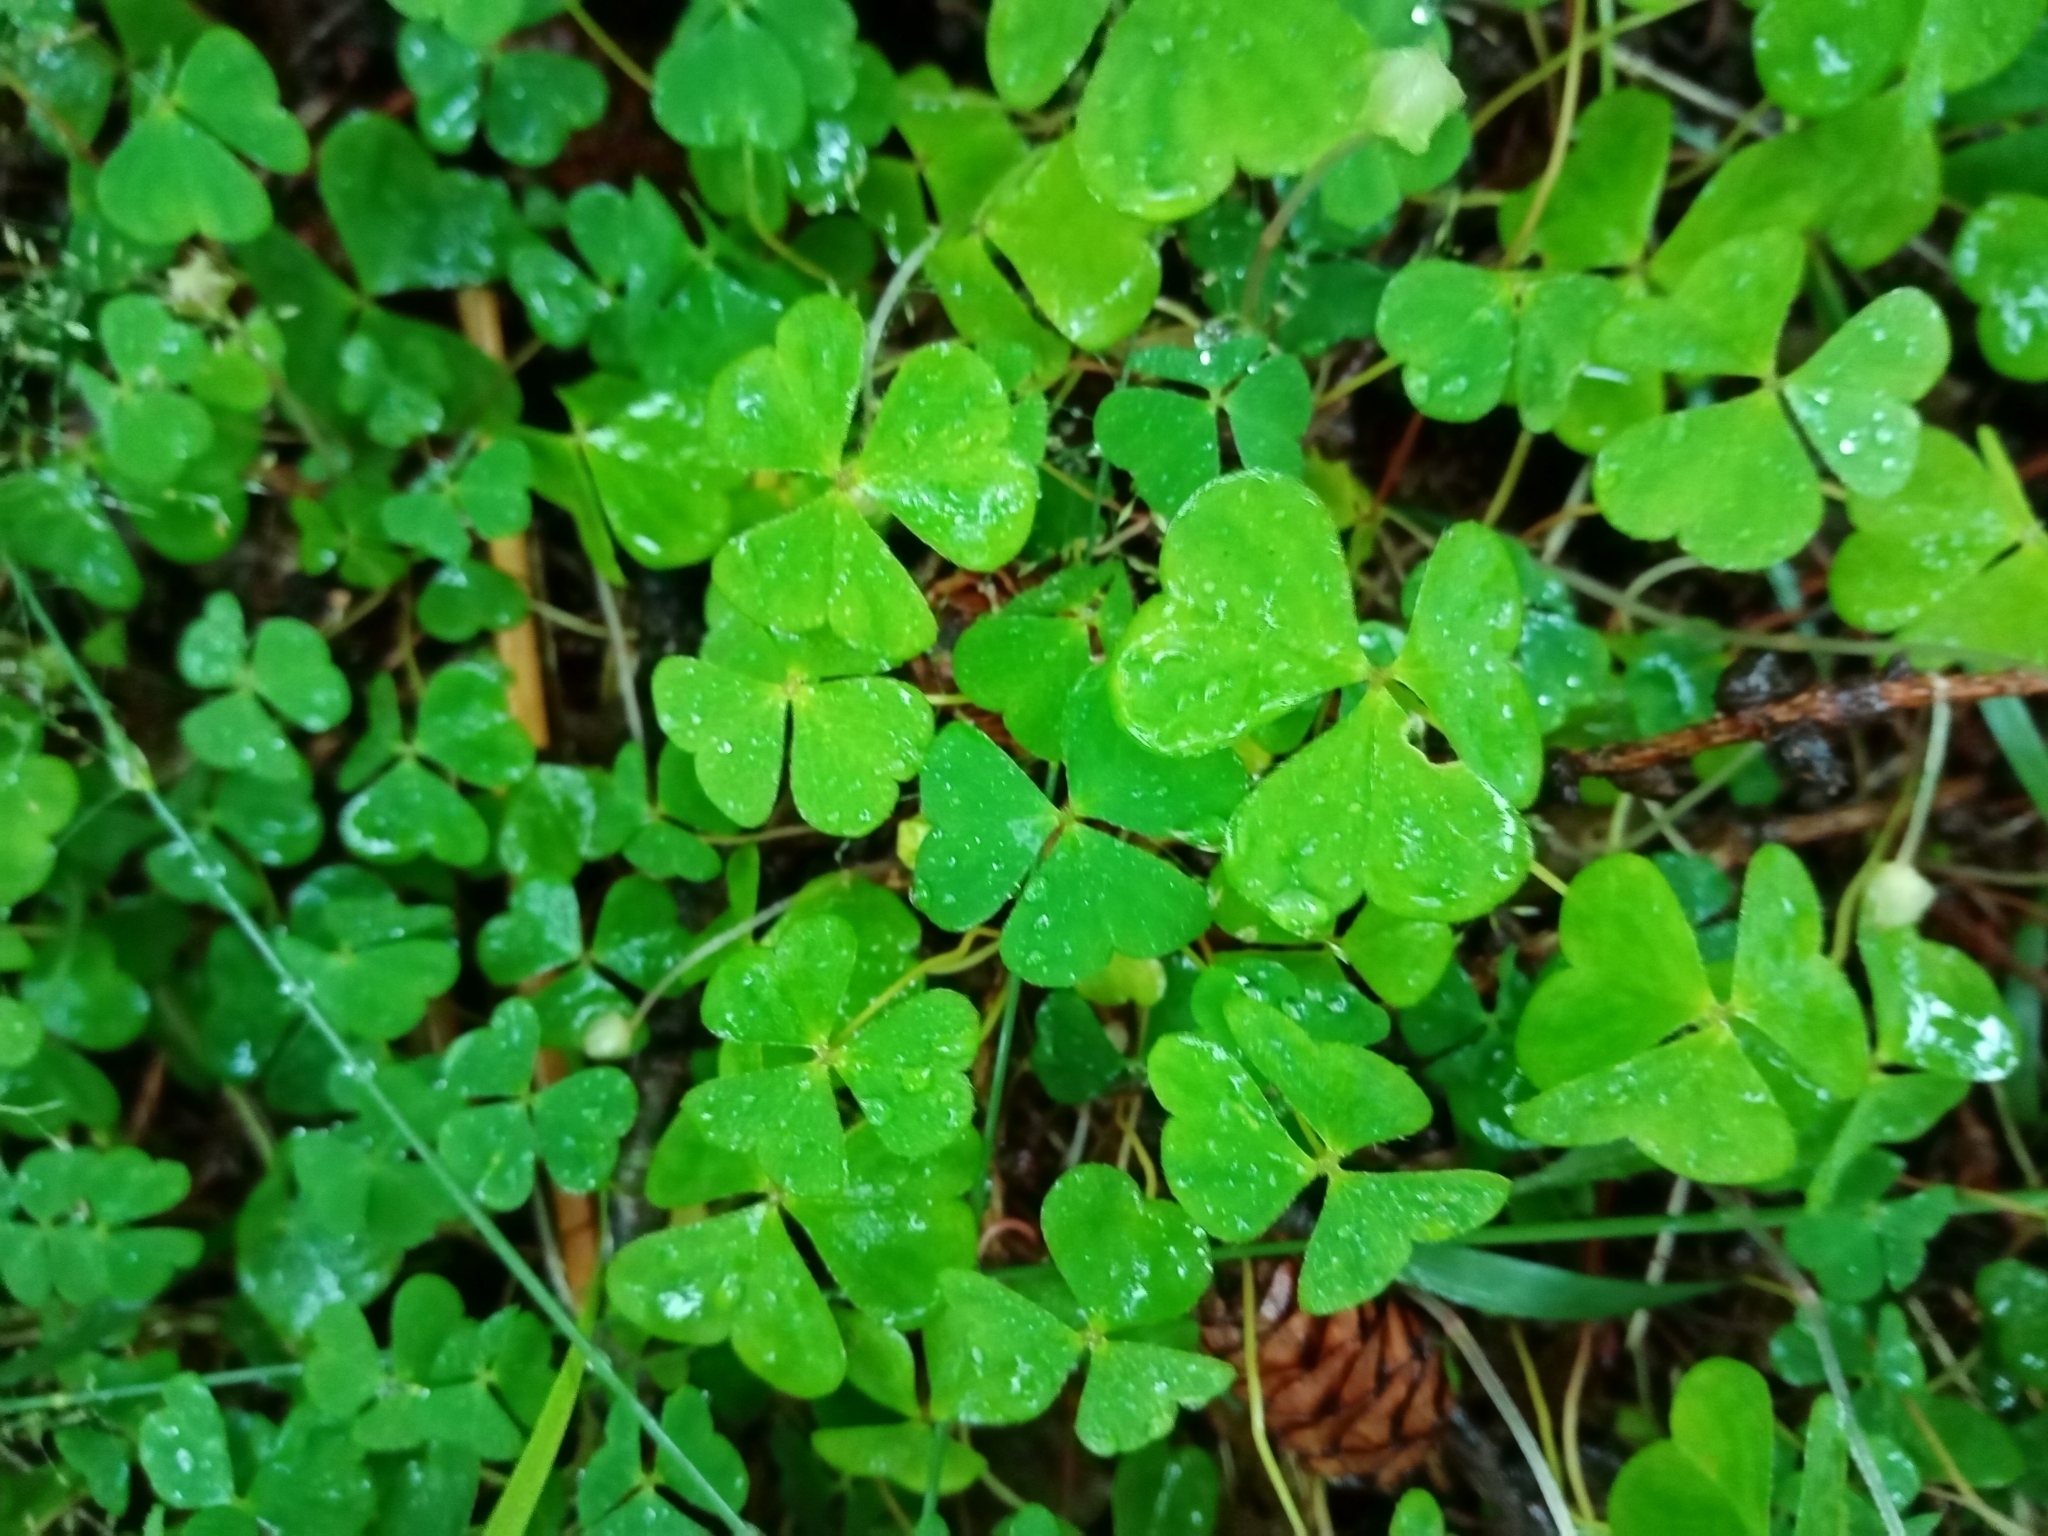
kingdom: Plantae
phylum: Tracheophyta
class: Magnoliopsida
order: Oxalidales
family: Oxalidaceae
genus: Oxalis
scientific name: Oxalis acetosella
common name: Wood-sorrel
